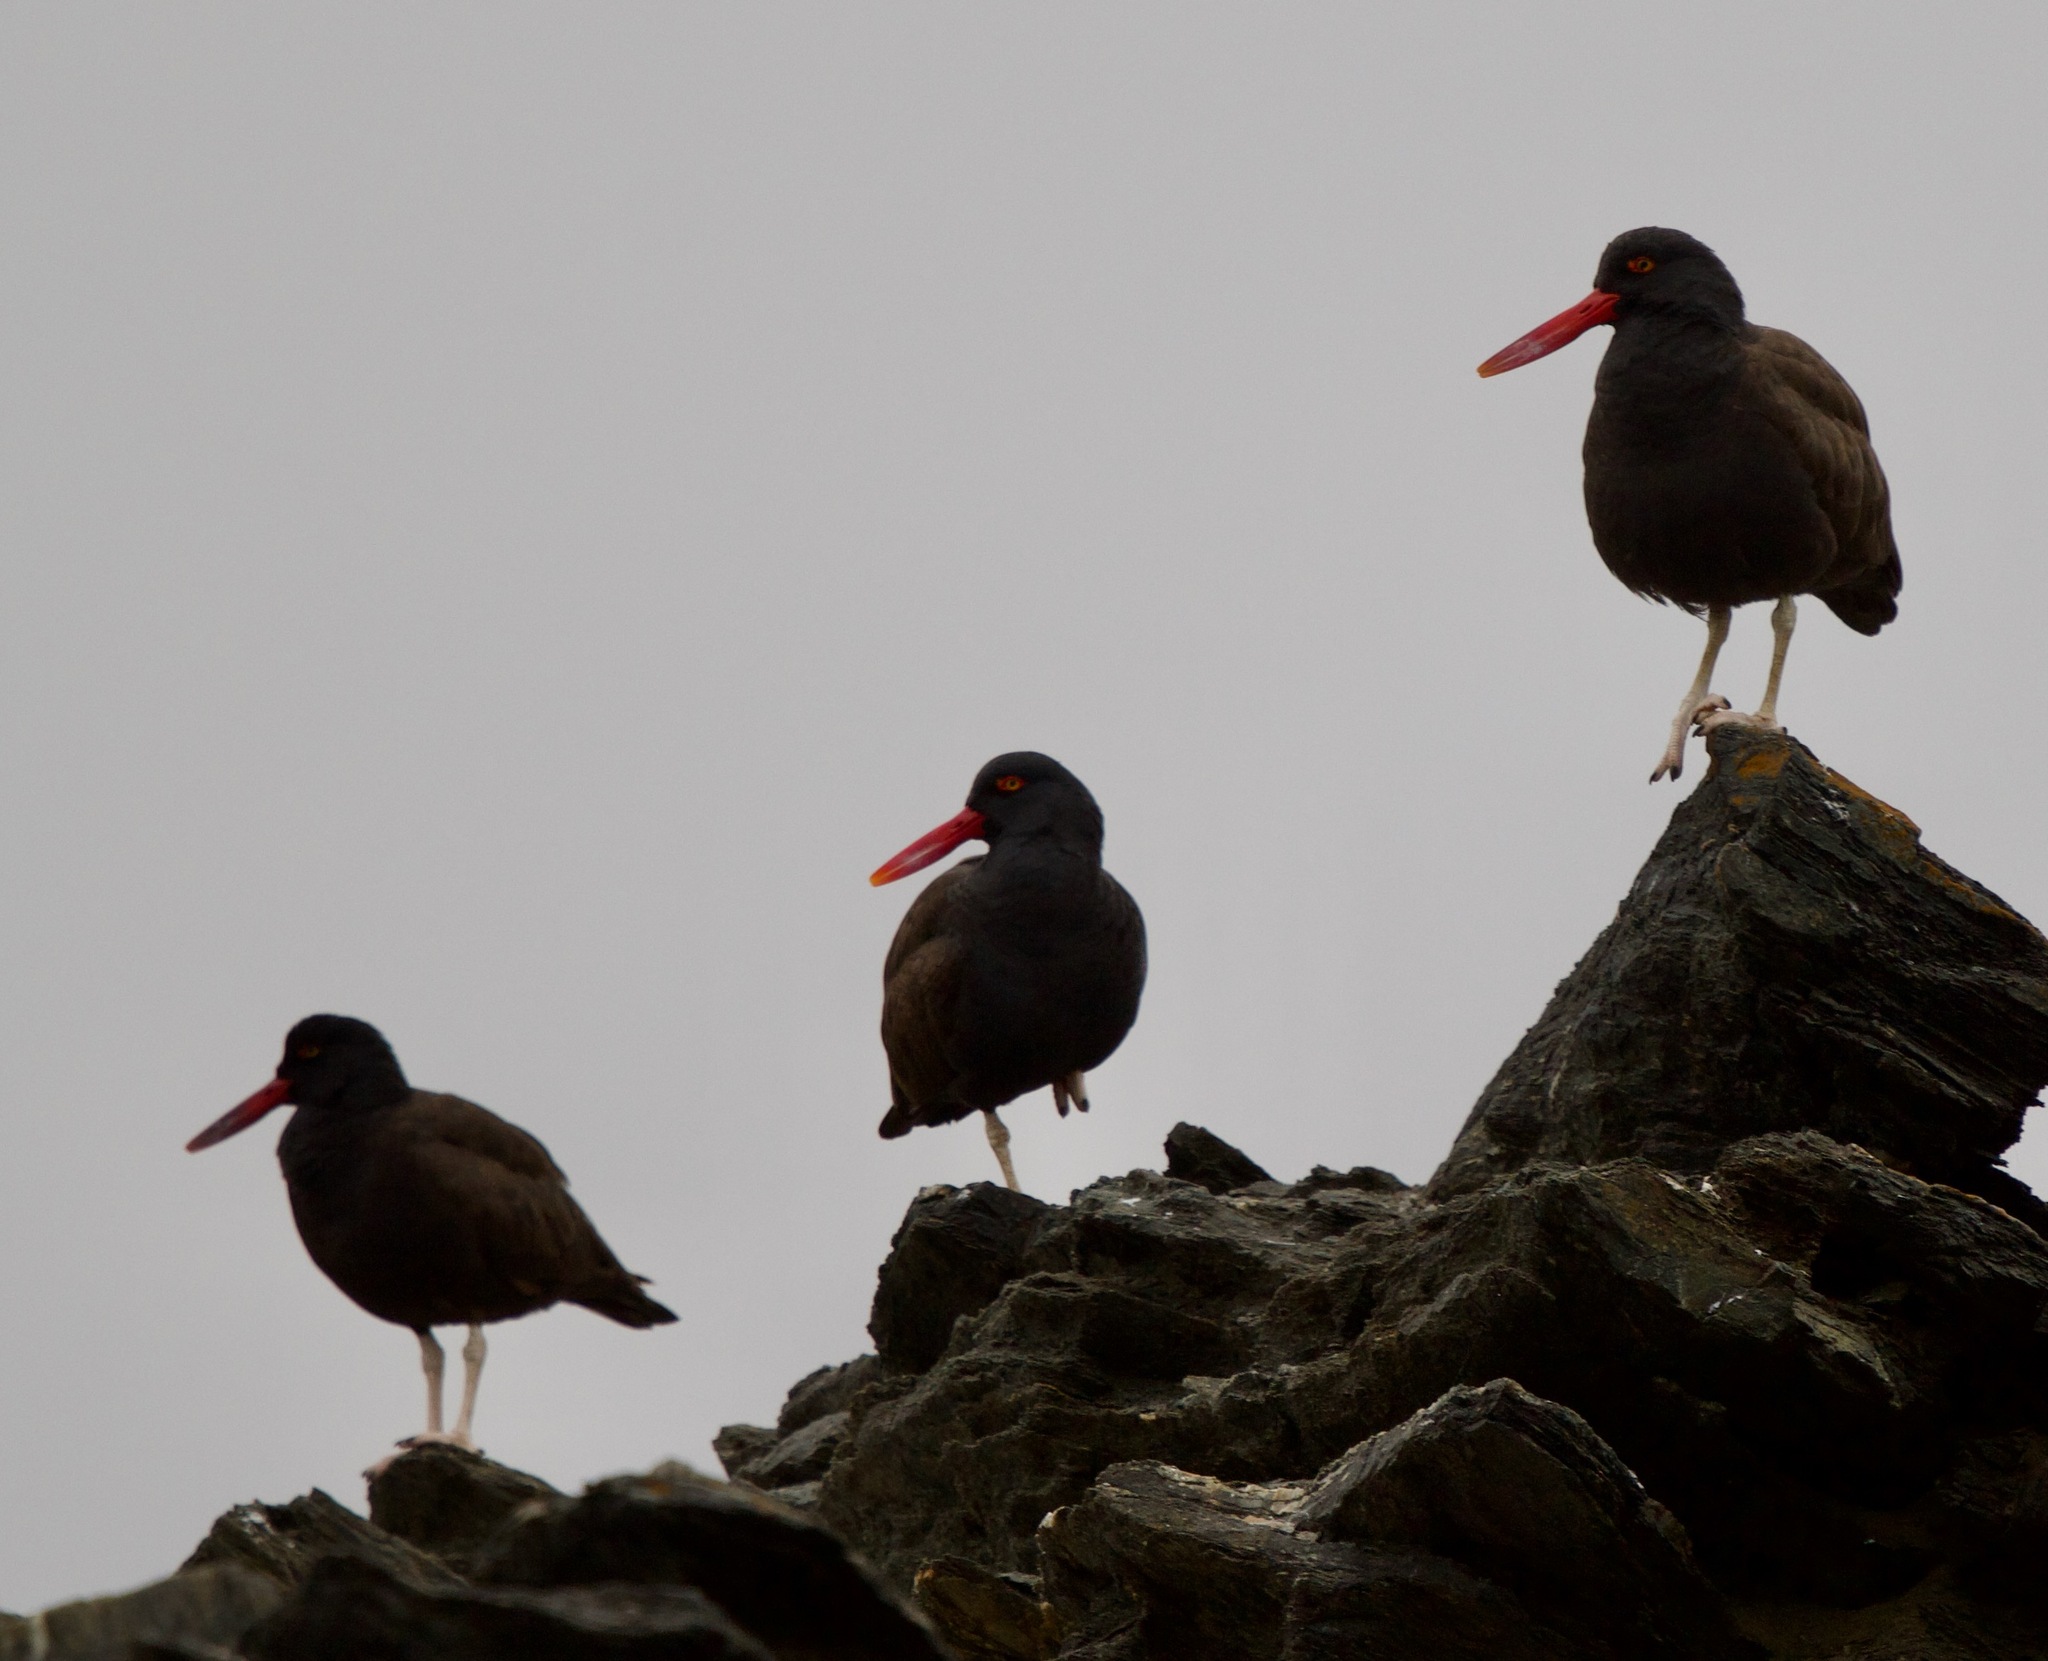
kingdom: Animalia
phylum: Chordata
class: Aves
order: Charadriiformes
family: Haematopodidae
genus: Haematopus
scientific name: Haematopus ater
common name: Blackish oystercatcher
